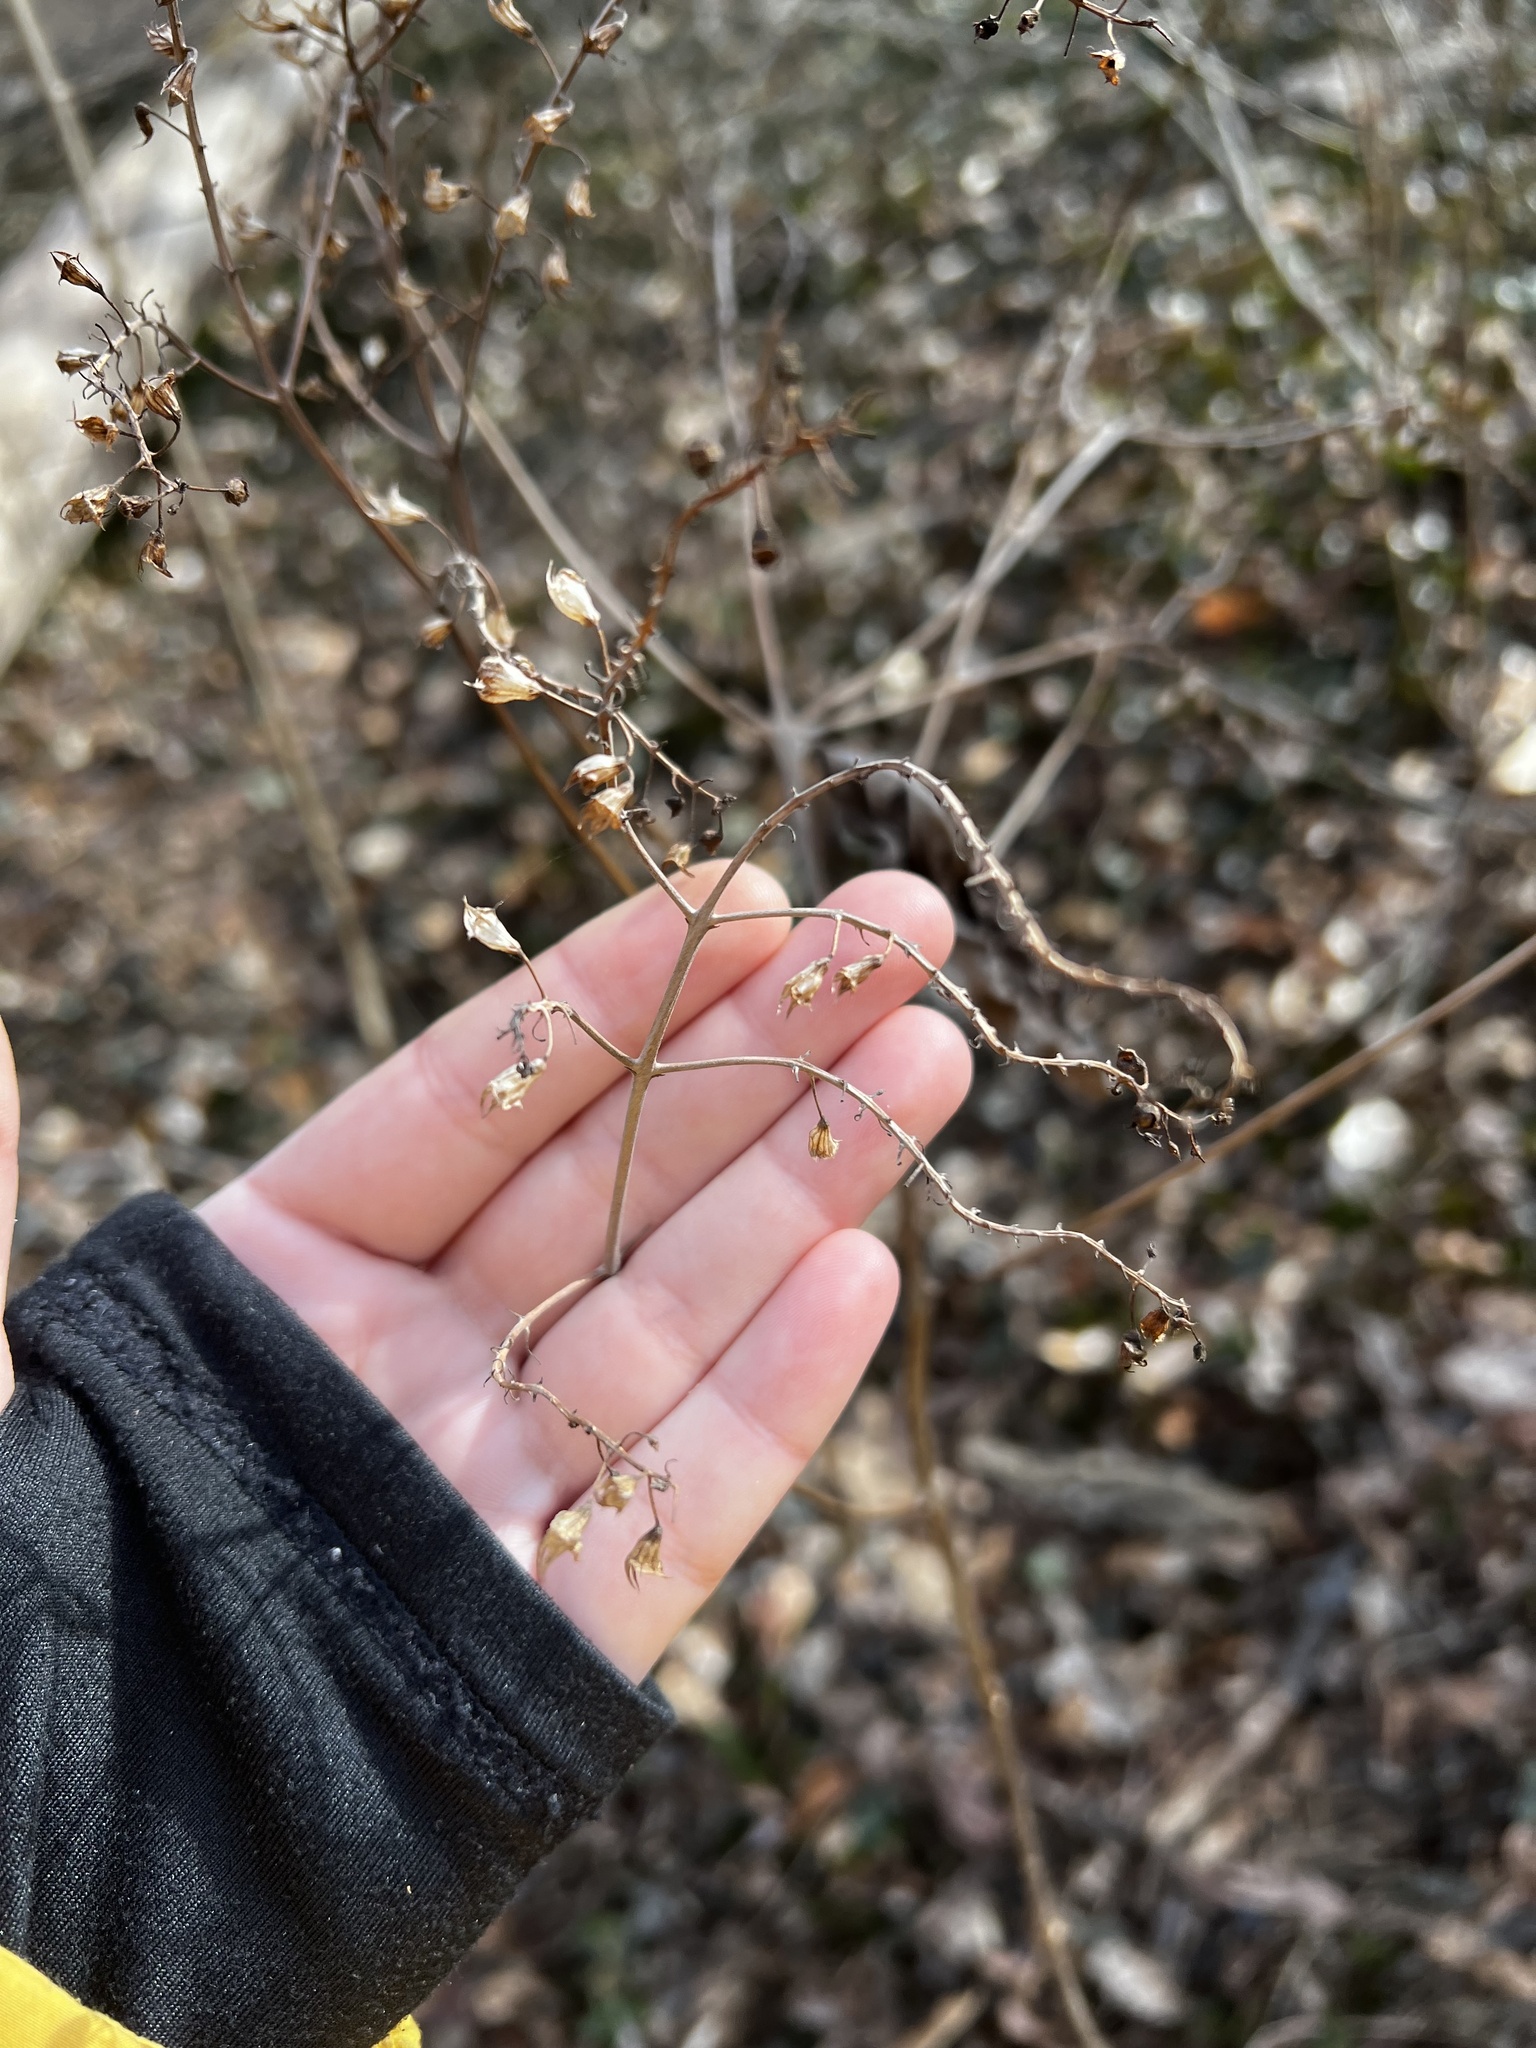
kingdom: Plantae
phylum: Tracheophyta
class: Magnoliopsida
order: Lamiales
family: Lamiaceae
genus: Collinsonia
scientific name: Collinsonia canadensis
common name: Northern horsebalm
